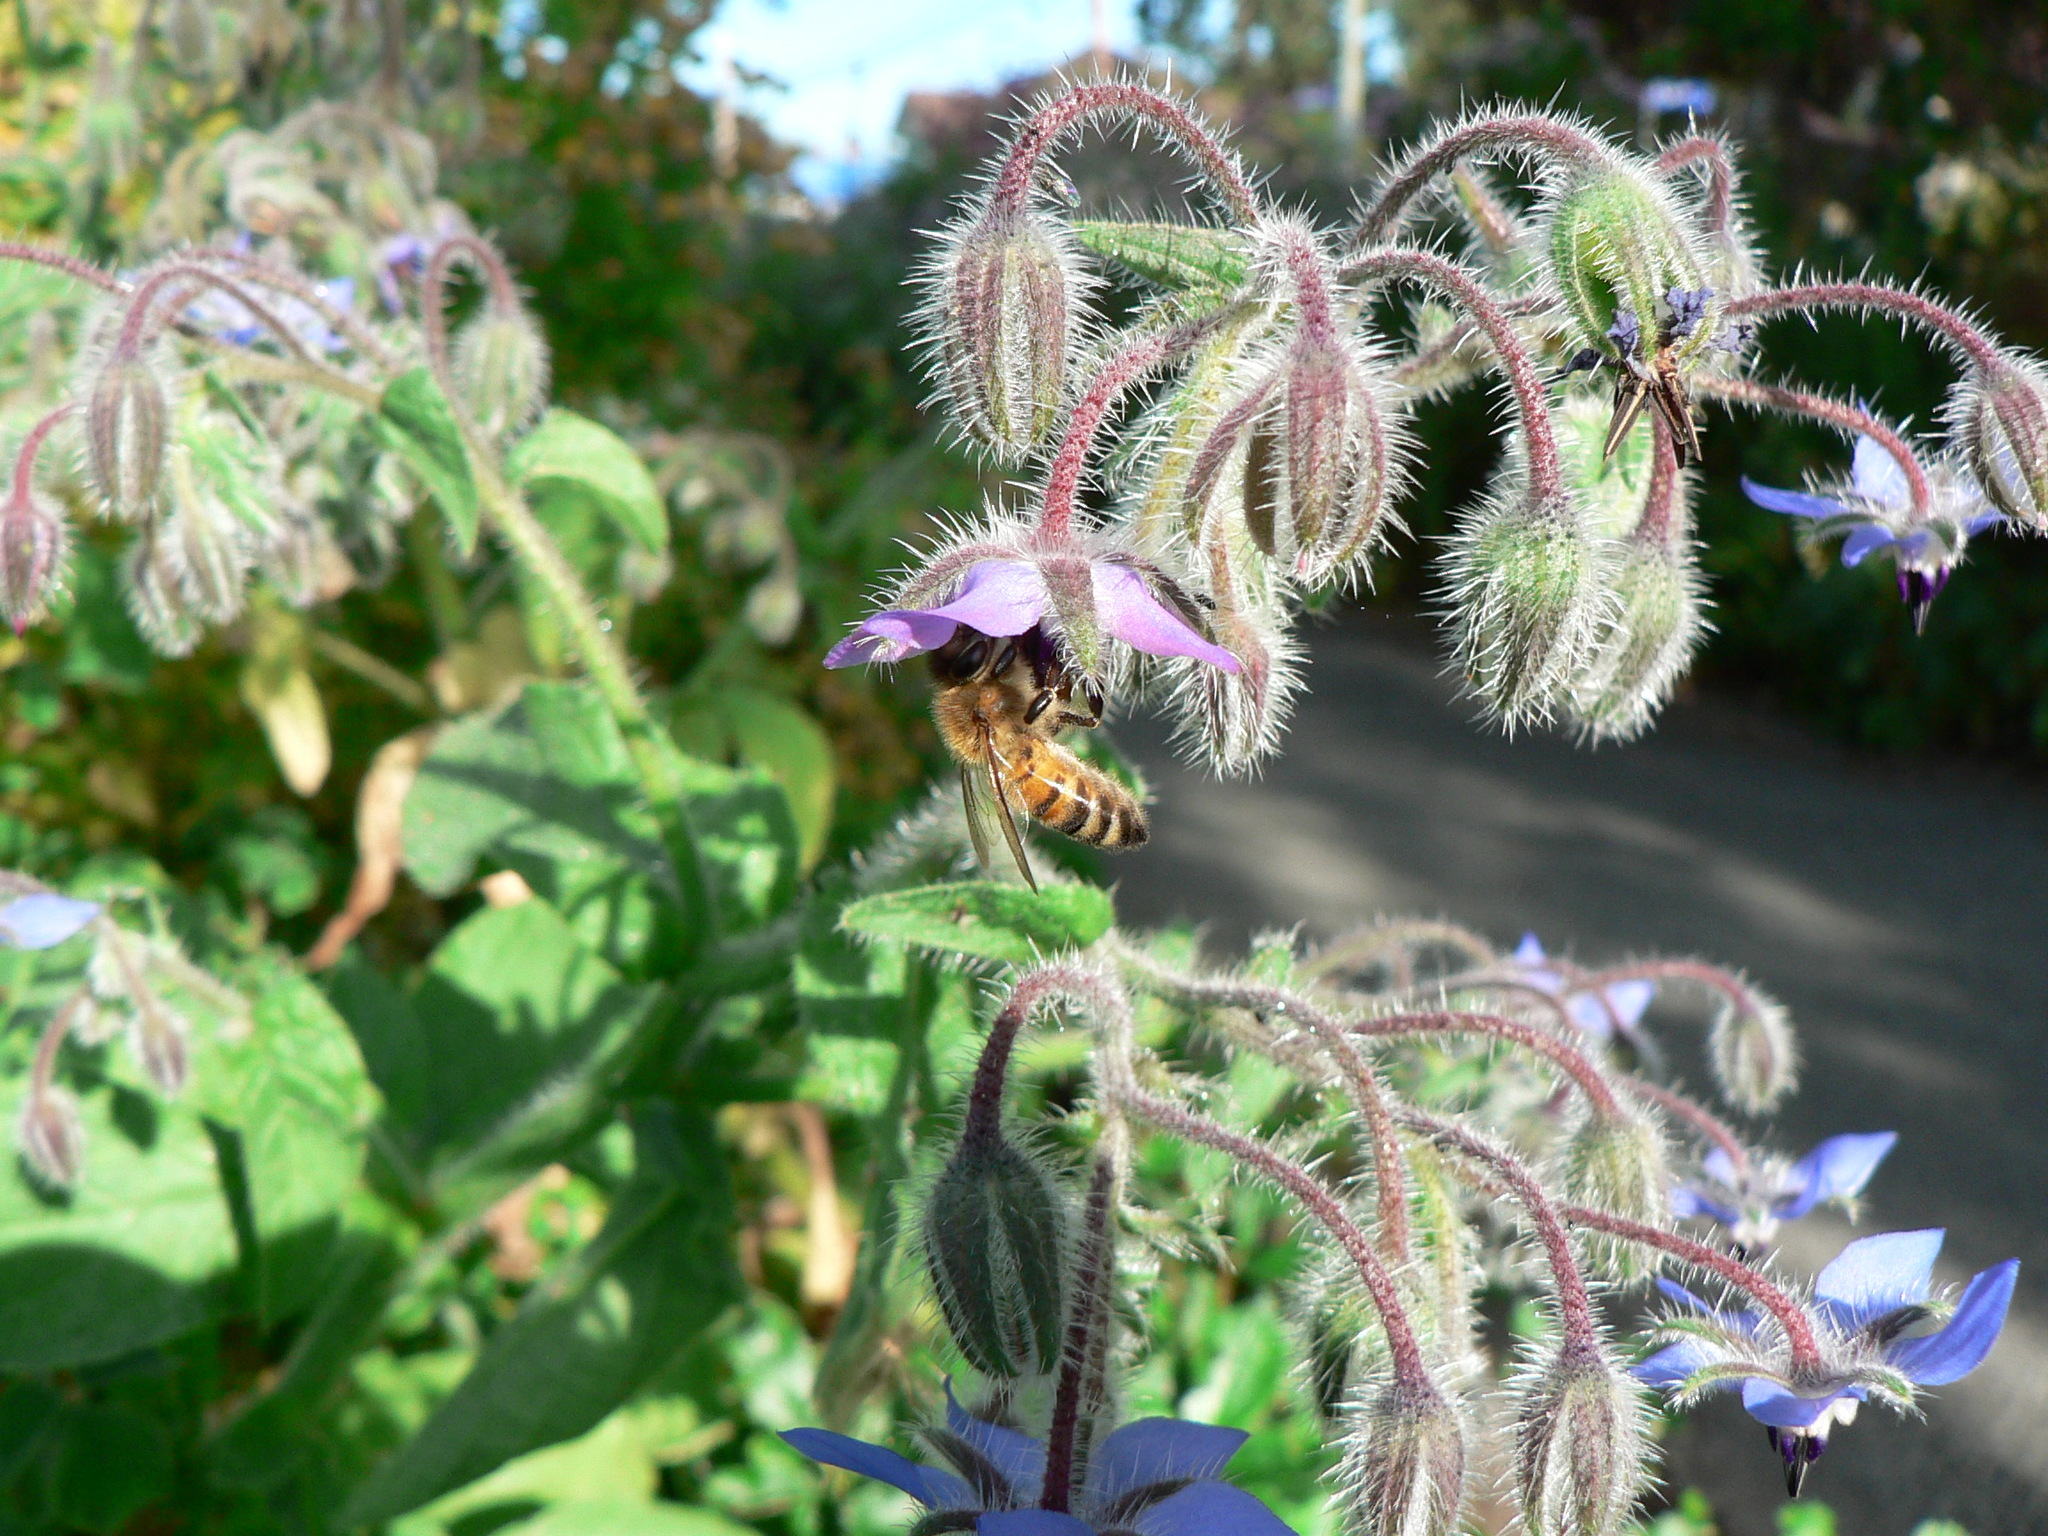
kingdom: Animalia
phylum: Arthropoda
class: Insecta
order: Hymenoptera
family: Apidae
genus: Apis
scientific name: Apis mellifera
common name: Honey bee
